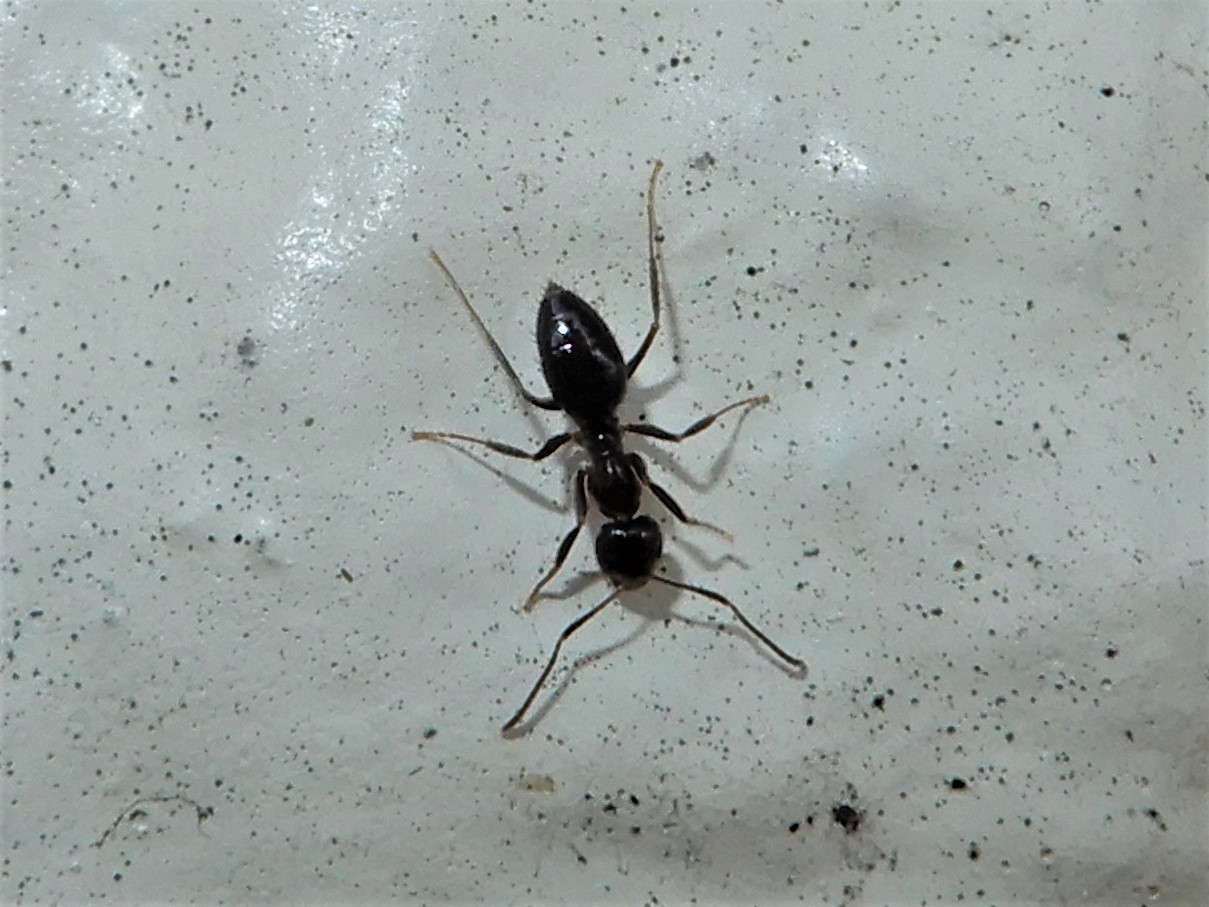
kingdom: Animalia
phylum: Arthropoda
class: Insecta
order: Hymenoptera
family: Formicidae
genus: Technomyrmex
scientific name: Technomyrmex jocosus
